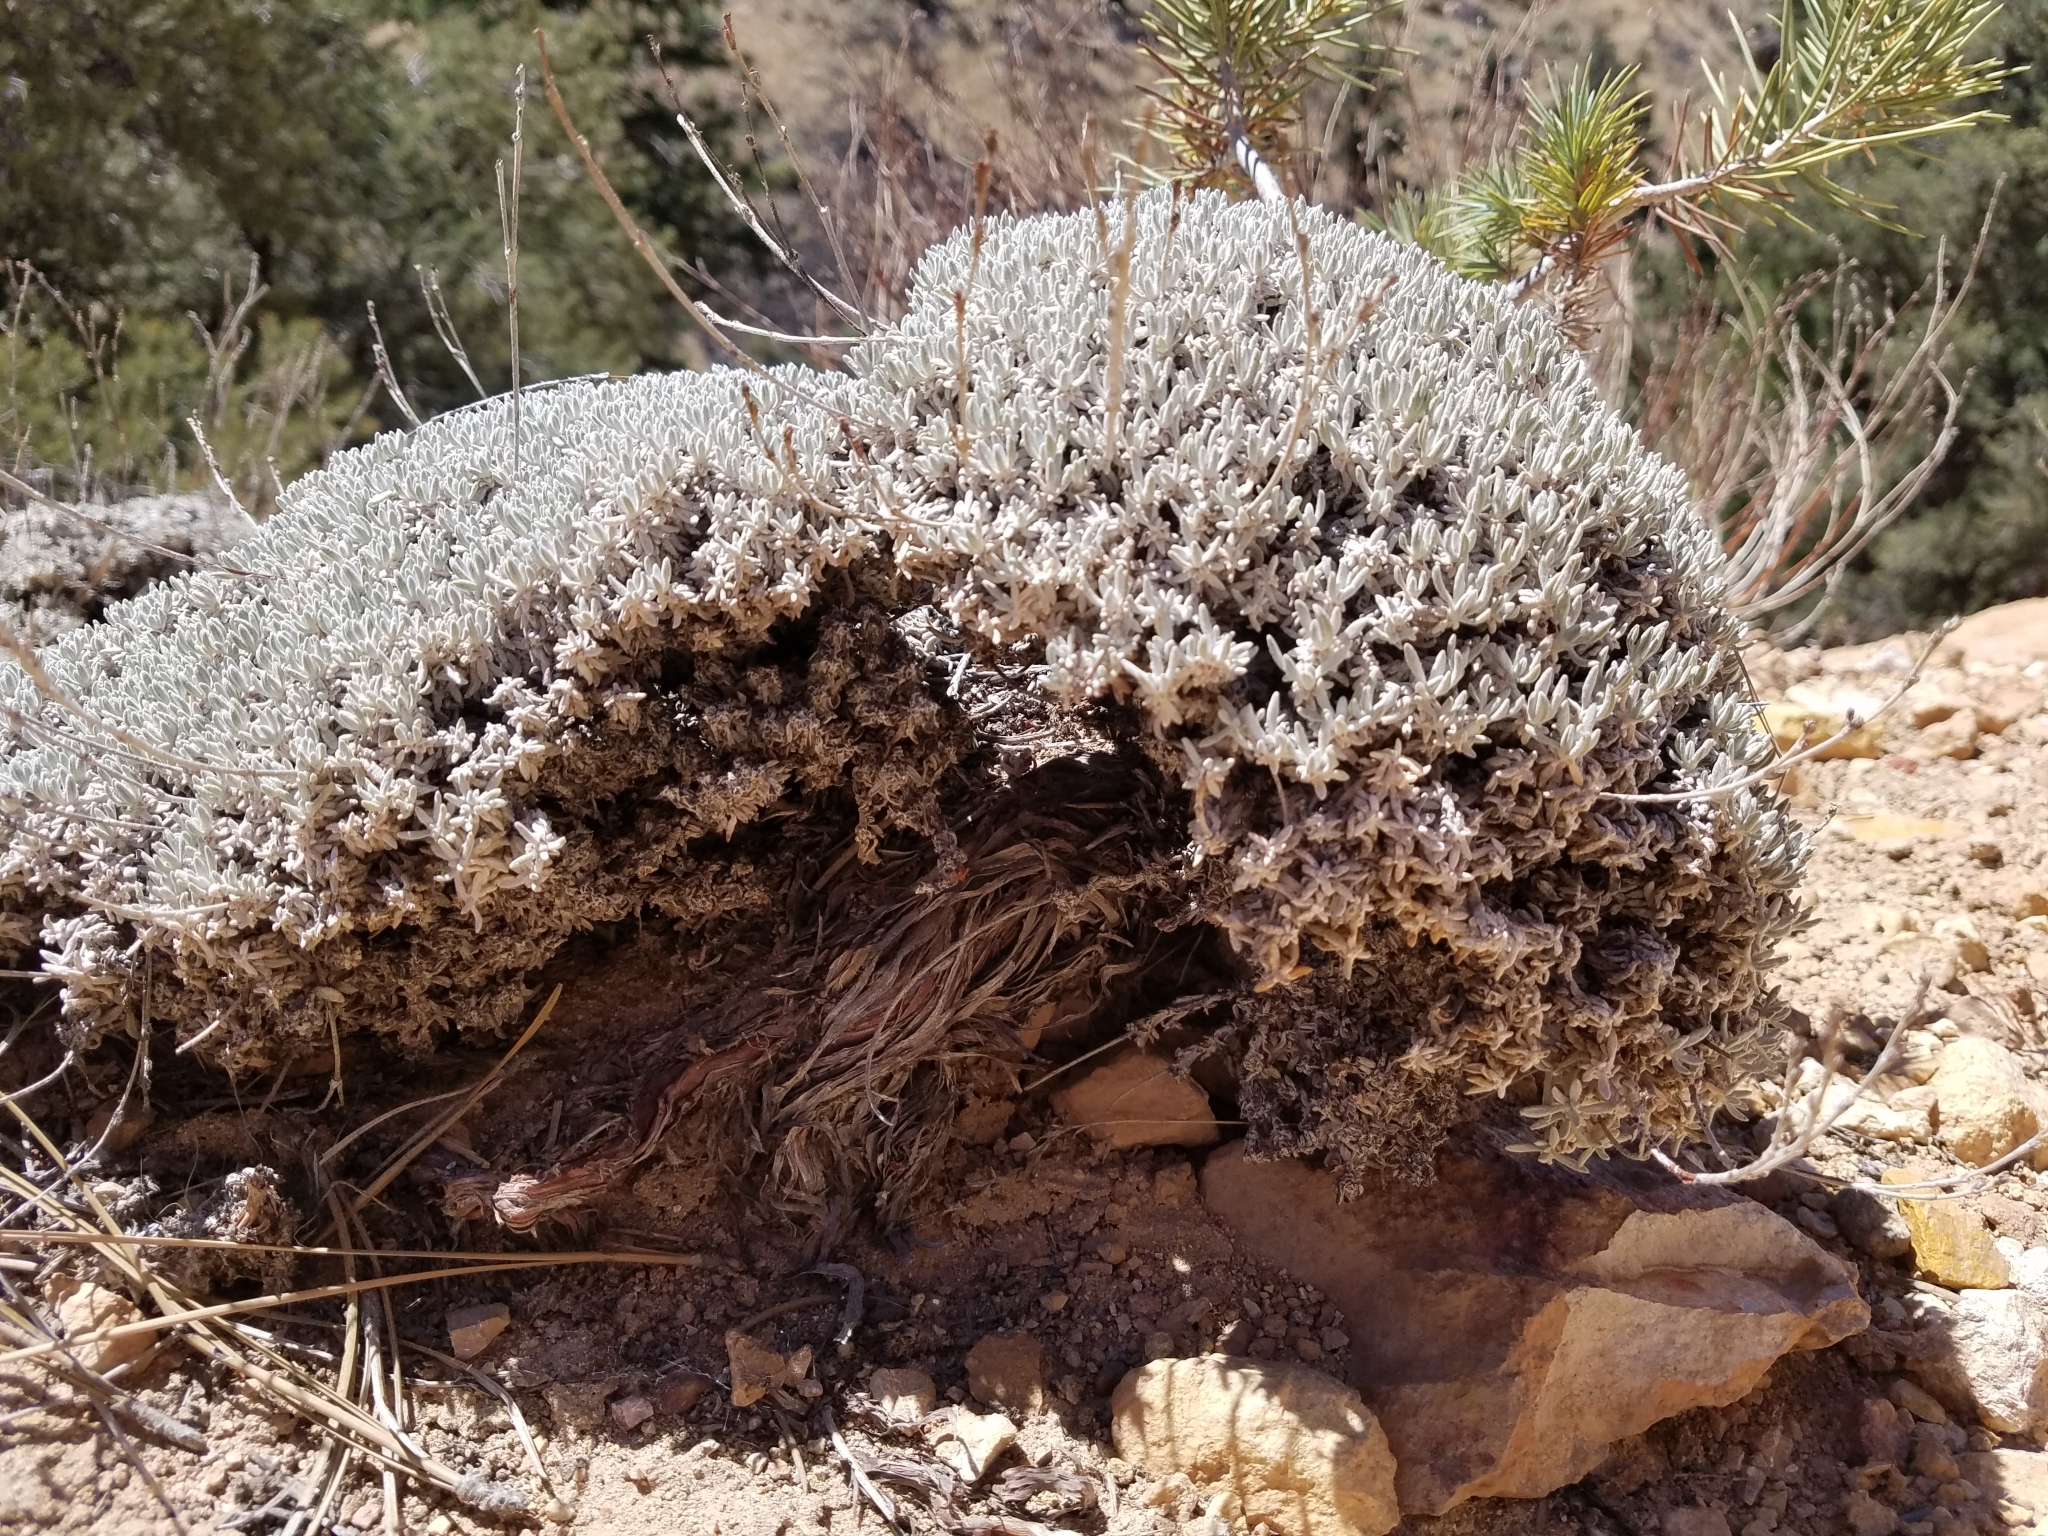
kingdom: Plantae
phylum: Tracheophyta
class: Magnoliopsida
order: Caryophyllales
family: Polygonaceae
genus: Eriogonum
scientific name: Eriogonum wrightii
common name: Bastard-sage
